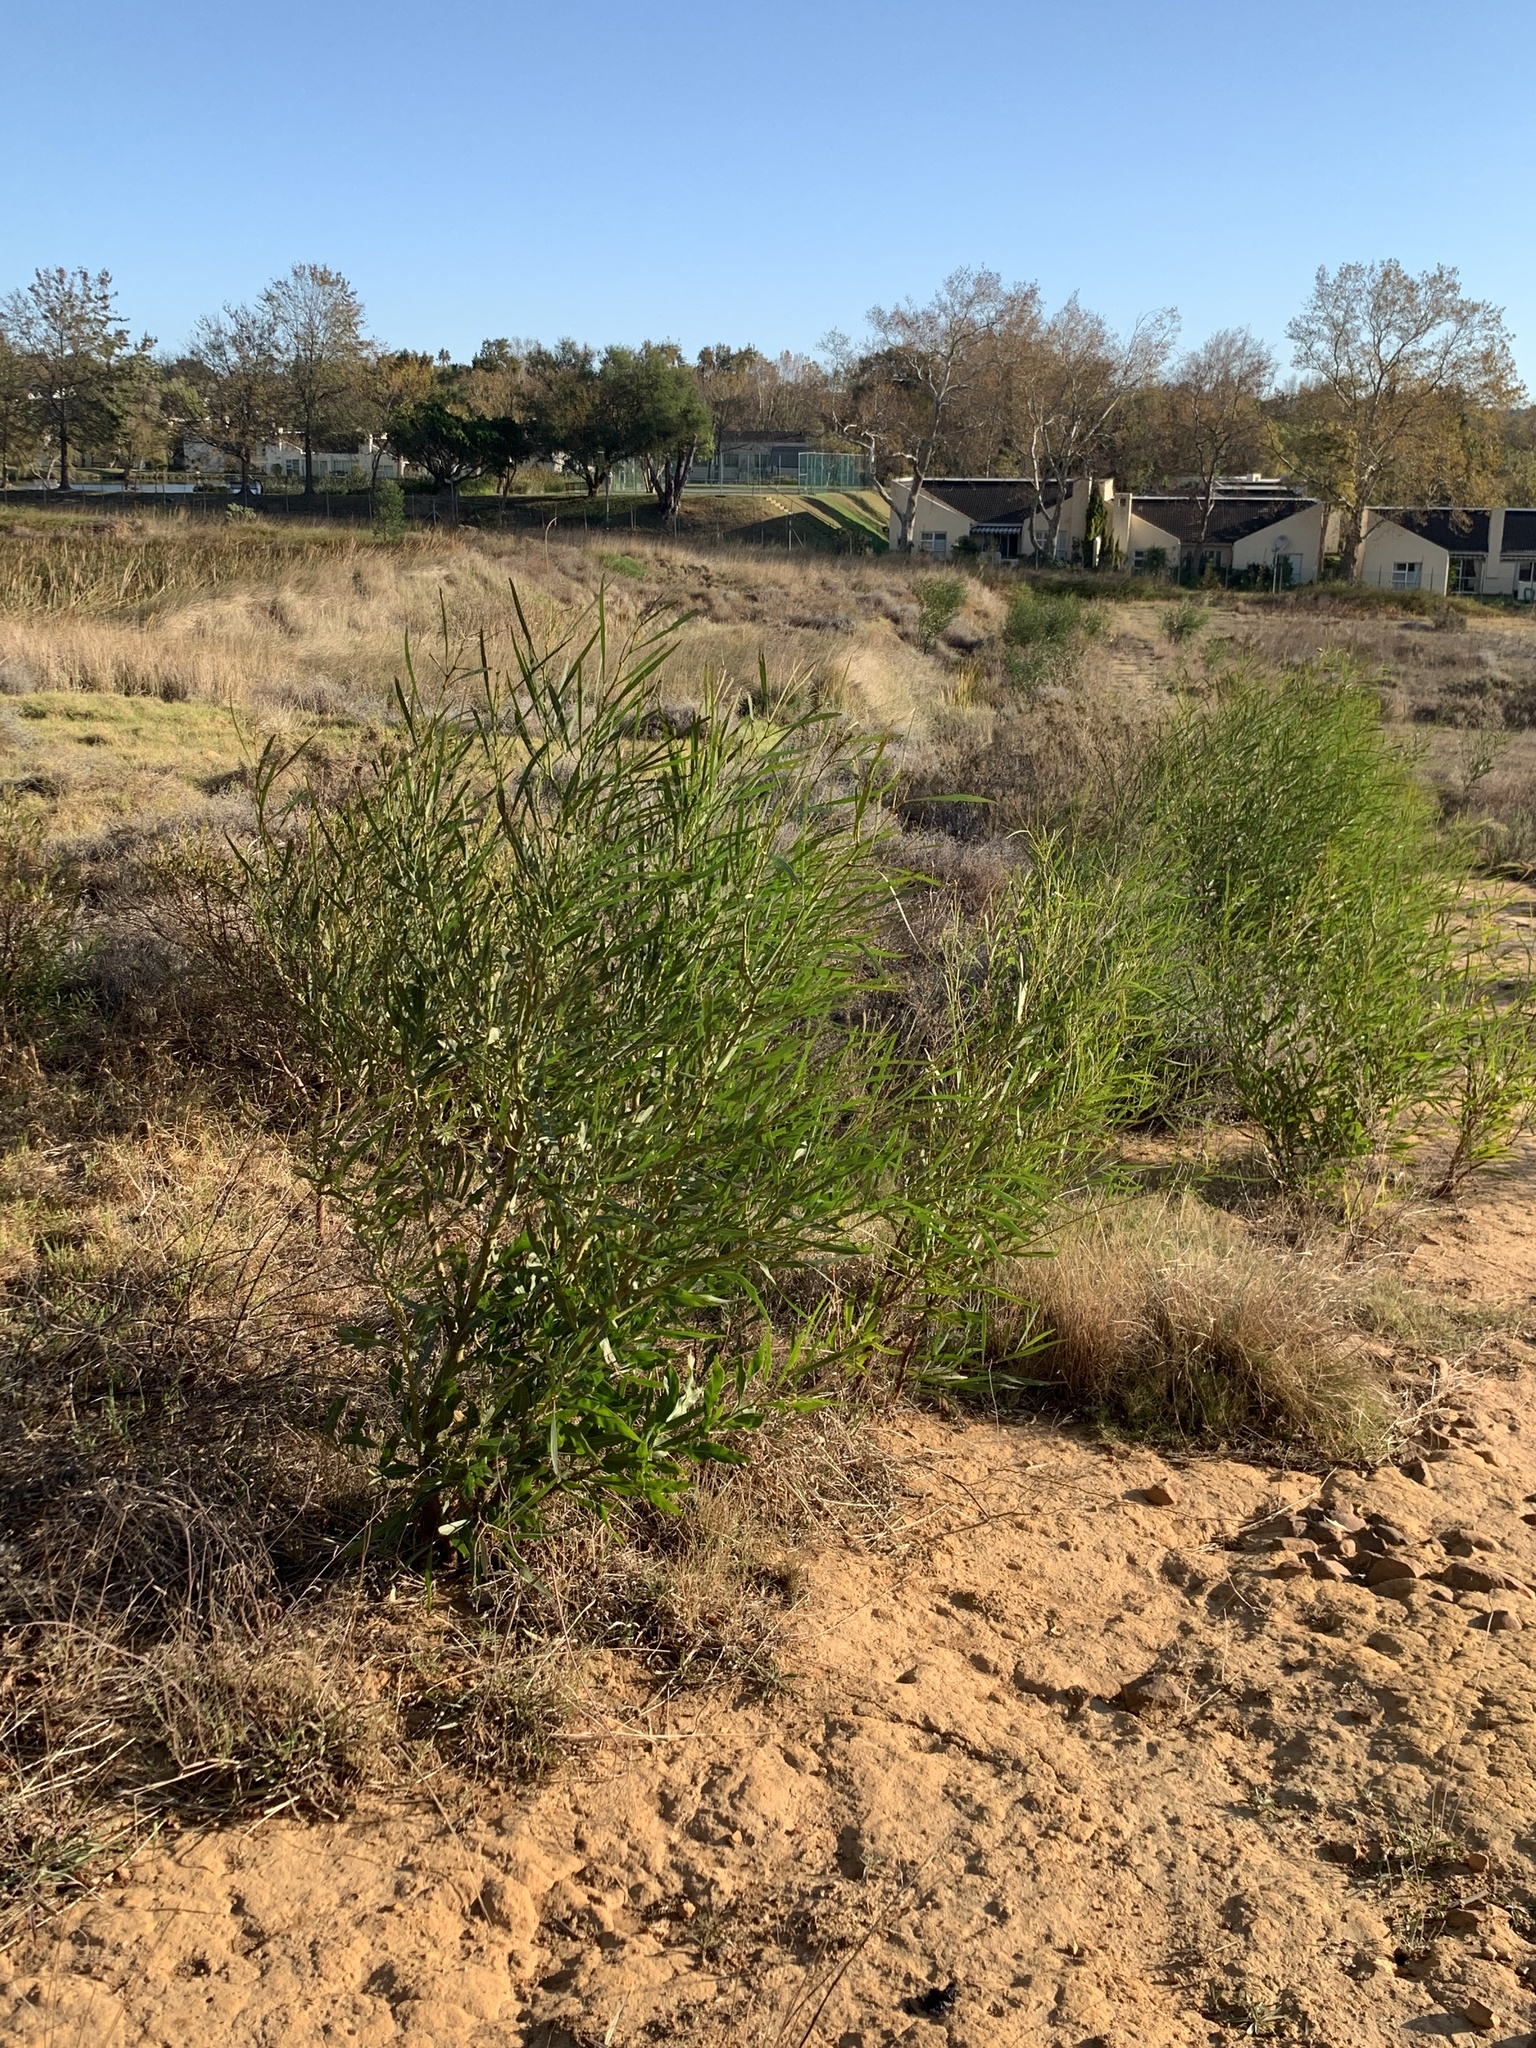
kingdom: Plantae
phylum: Tracheophyta
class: Magnoliopsida
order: Fabales
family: Fabaceae
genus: Acacia
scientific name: Acacia saligna
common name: Orange wattle
